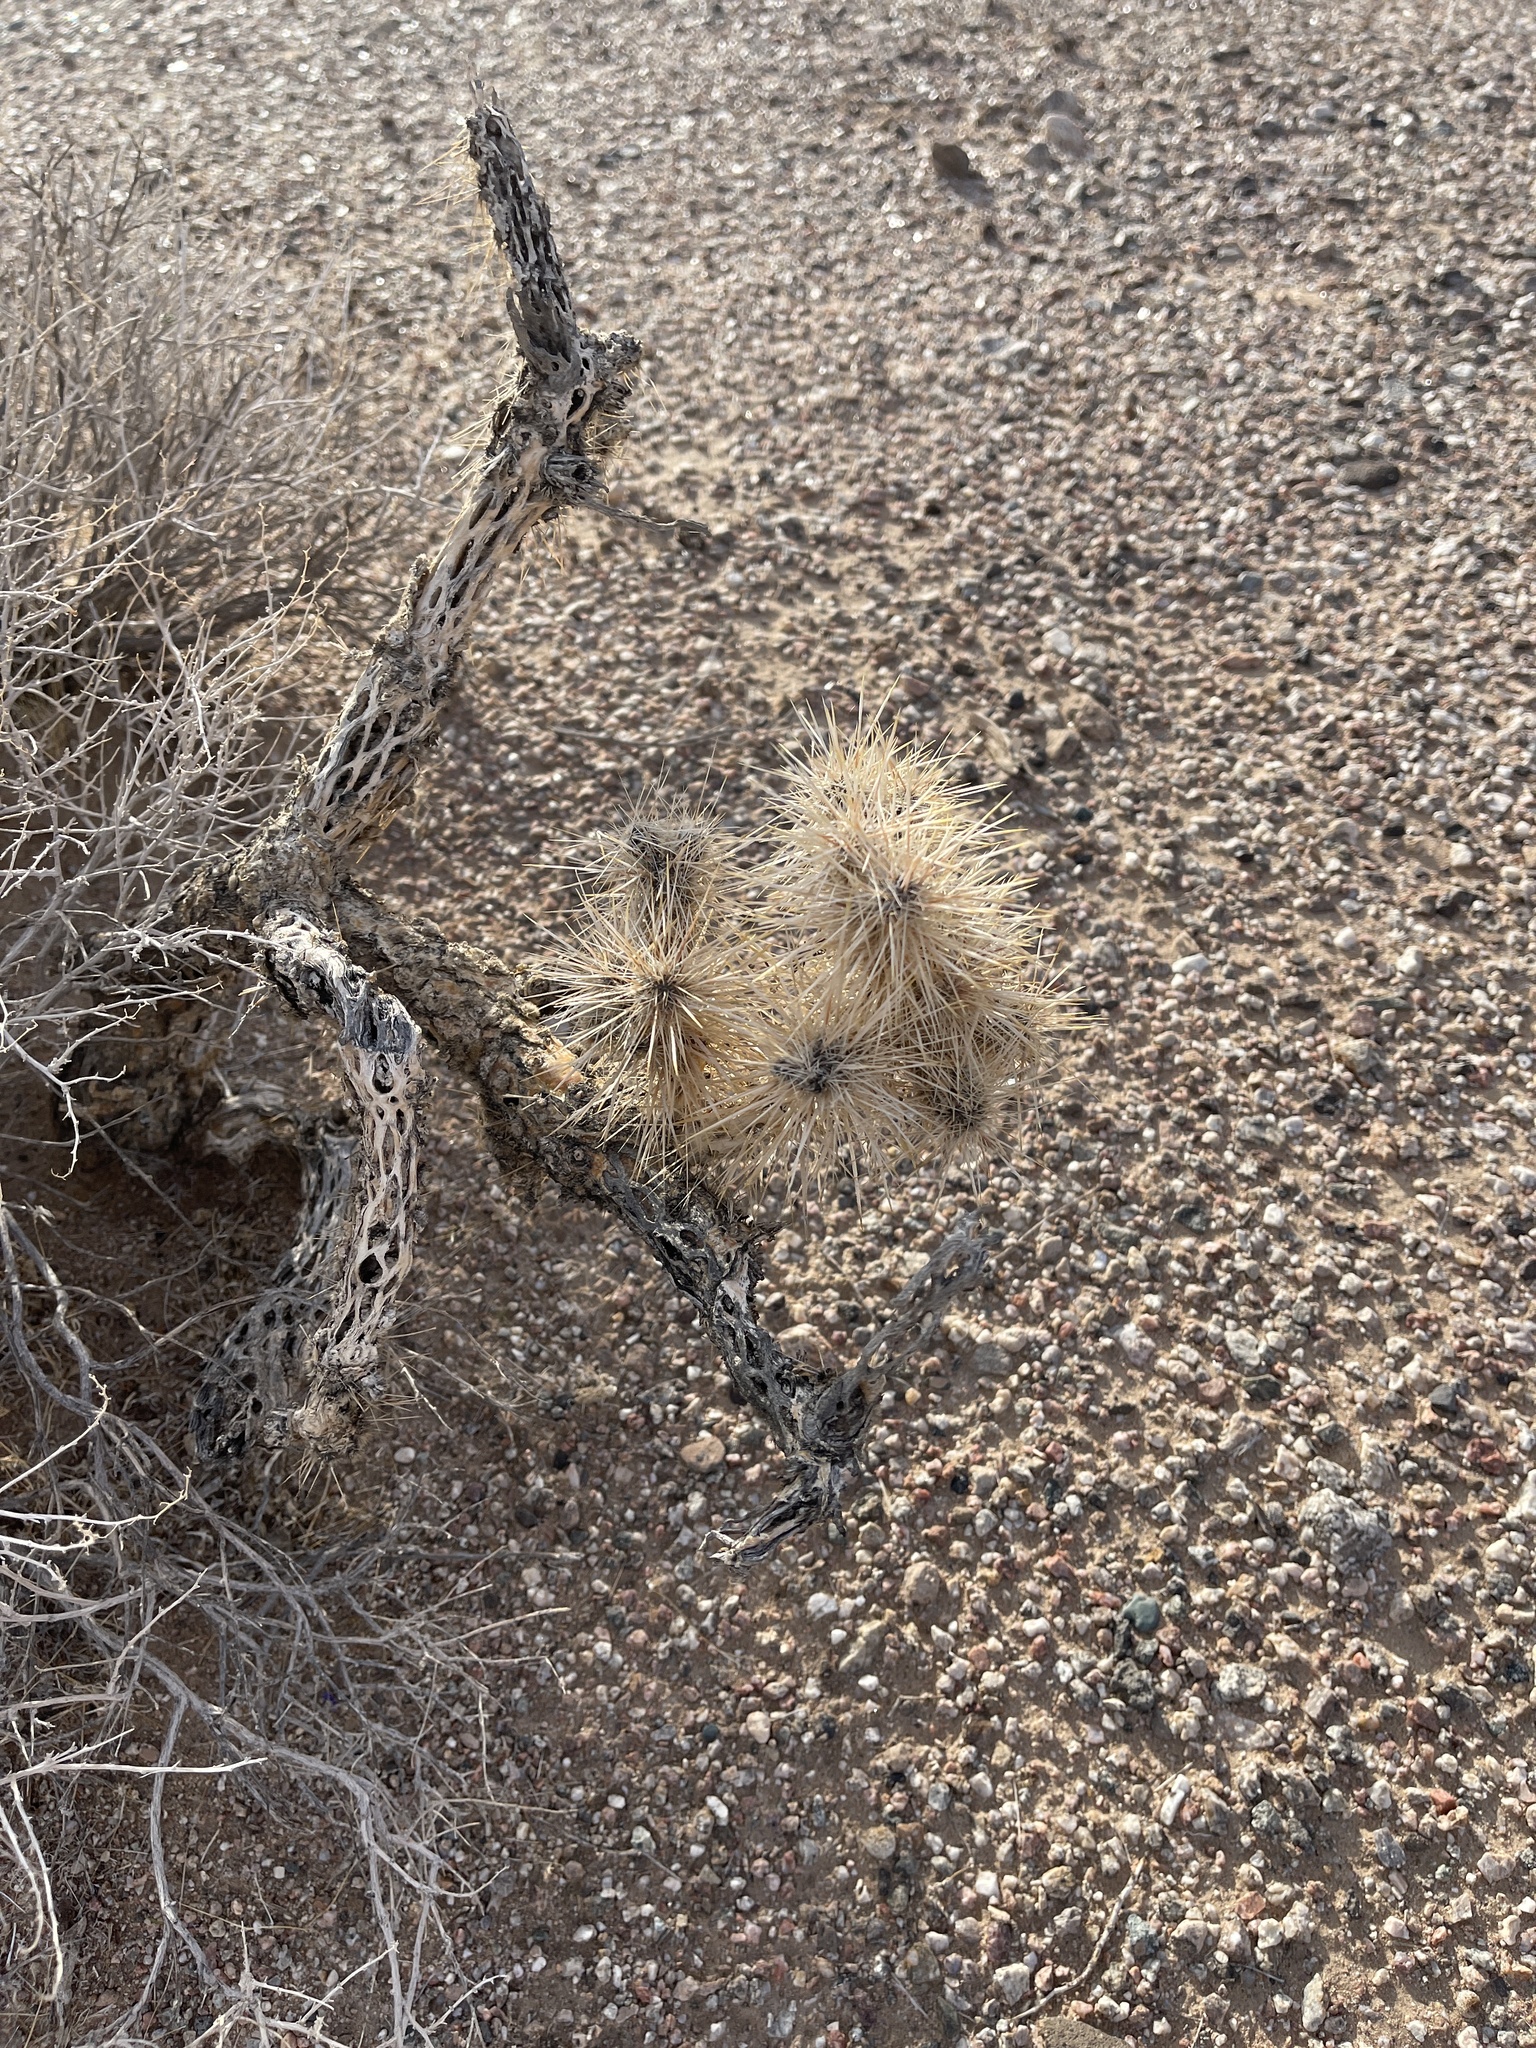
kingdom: Plantae
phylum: Tracheophyta
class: Magnoliopsida
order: Caryophyllales
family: Cactaceae
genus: Cylindropuntia
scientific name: Cylindropuntia echinocarpa
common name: Ground cholla
